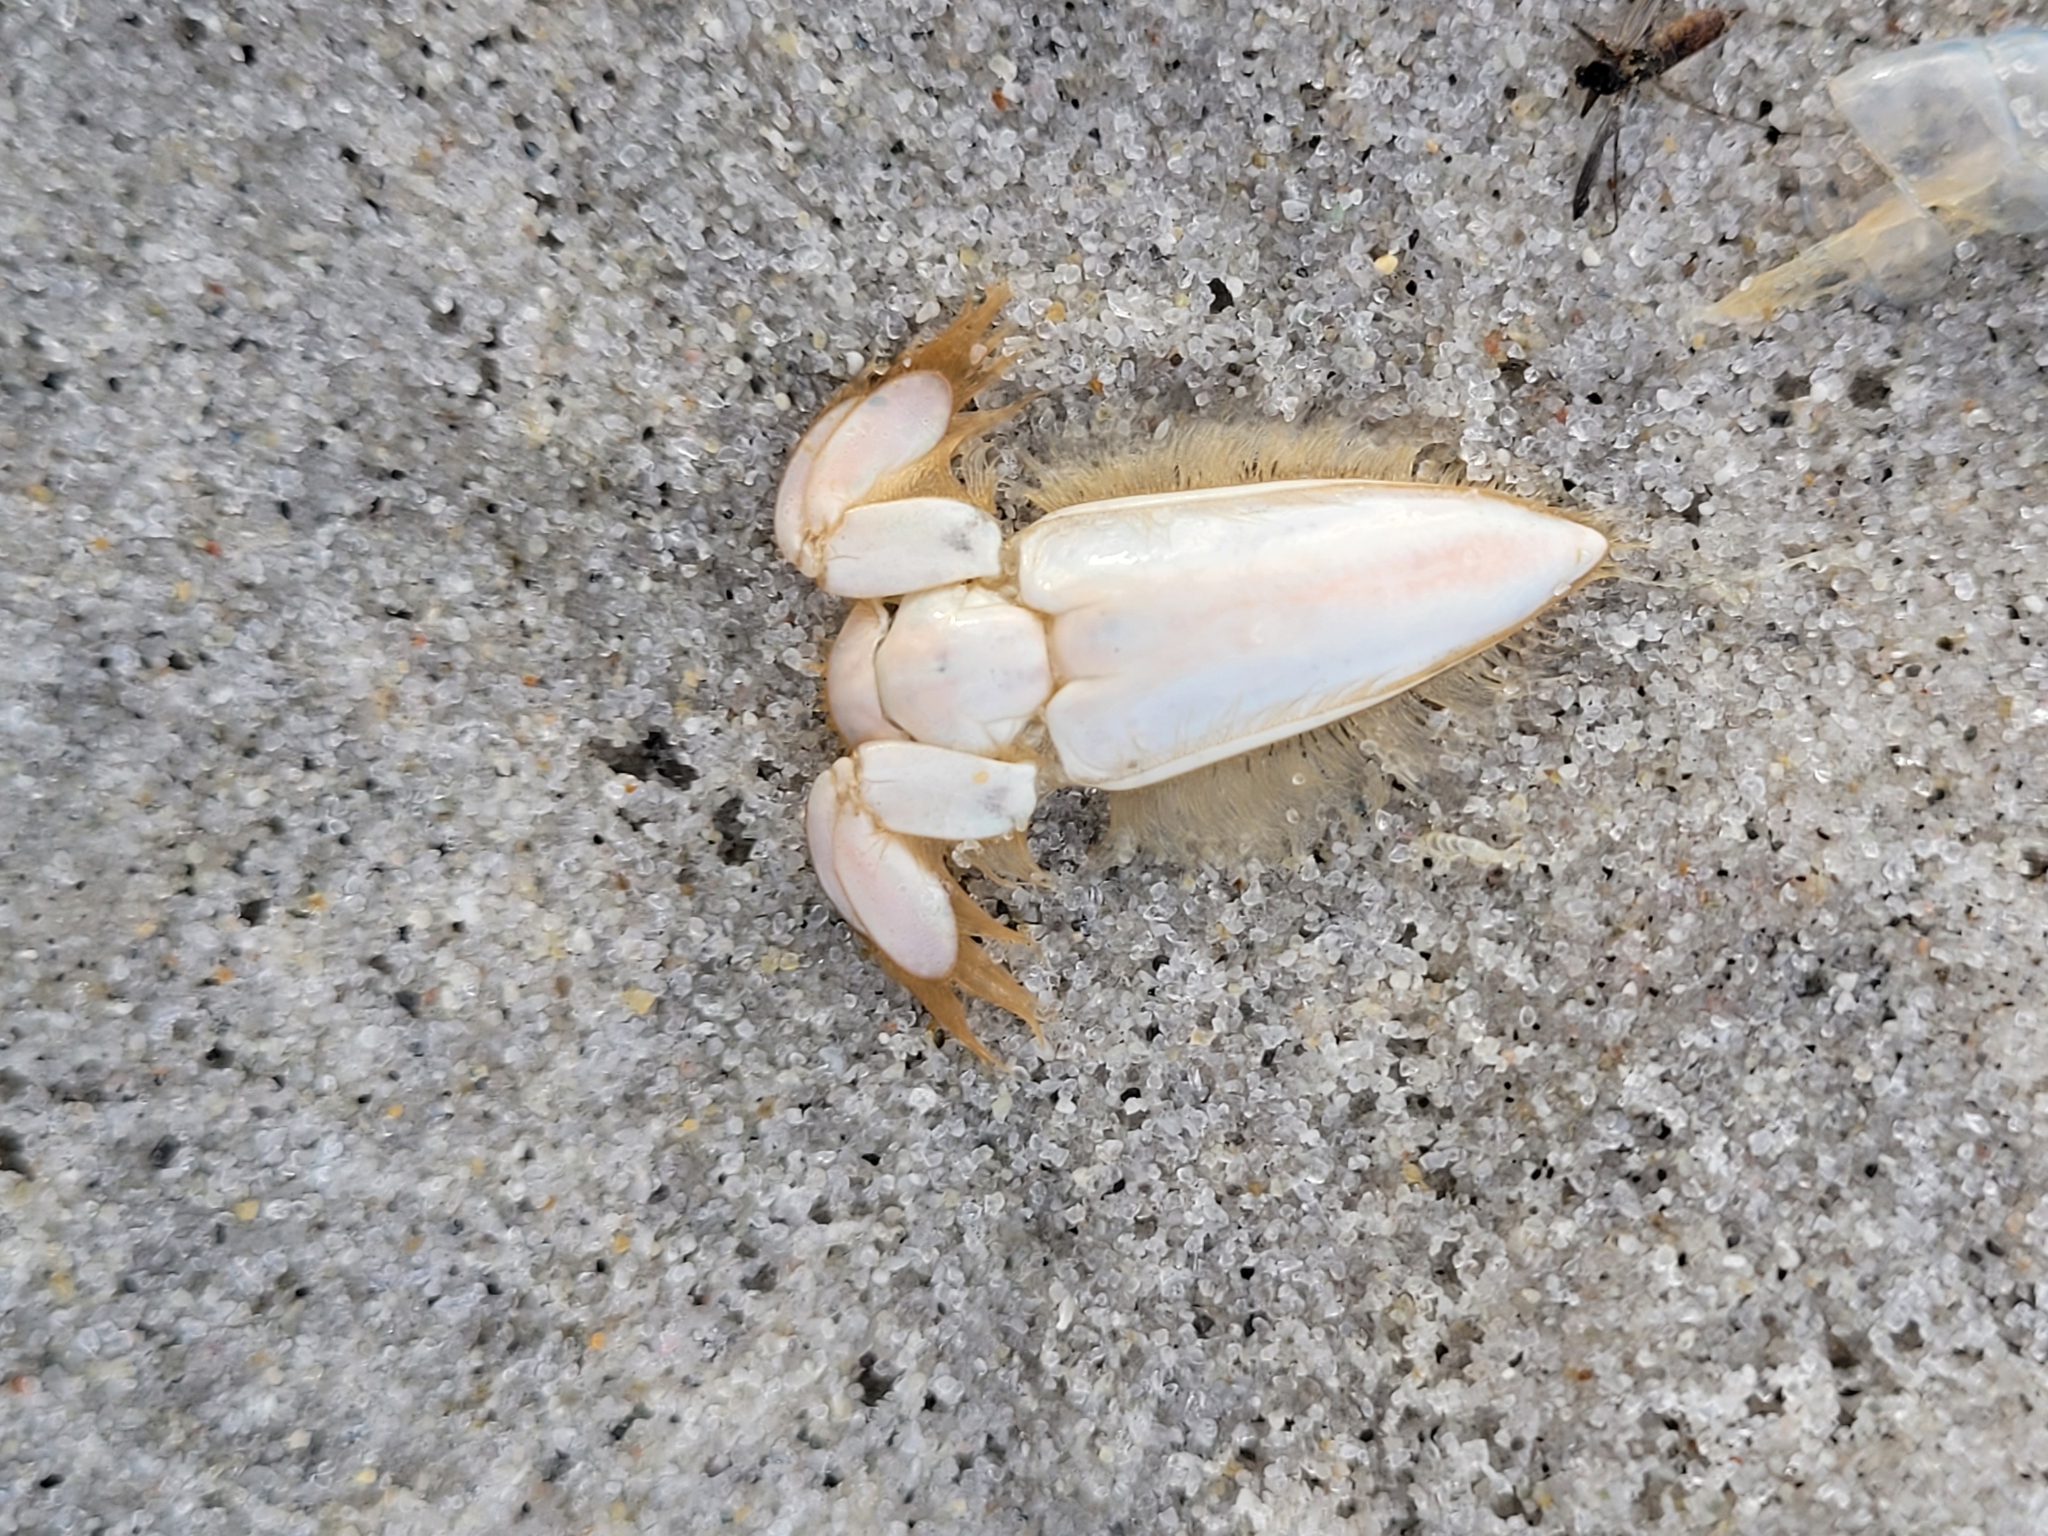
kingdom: Animalia
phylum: Arthropoda
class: Malacostraca
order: Decapoda
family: Hippidae
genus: Emerita
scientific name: Emerita analoga
